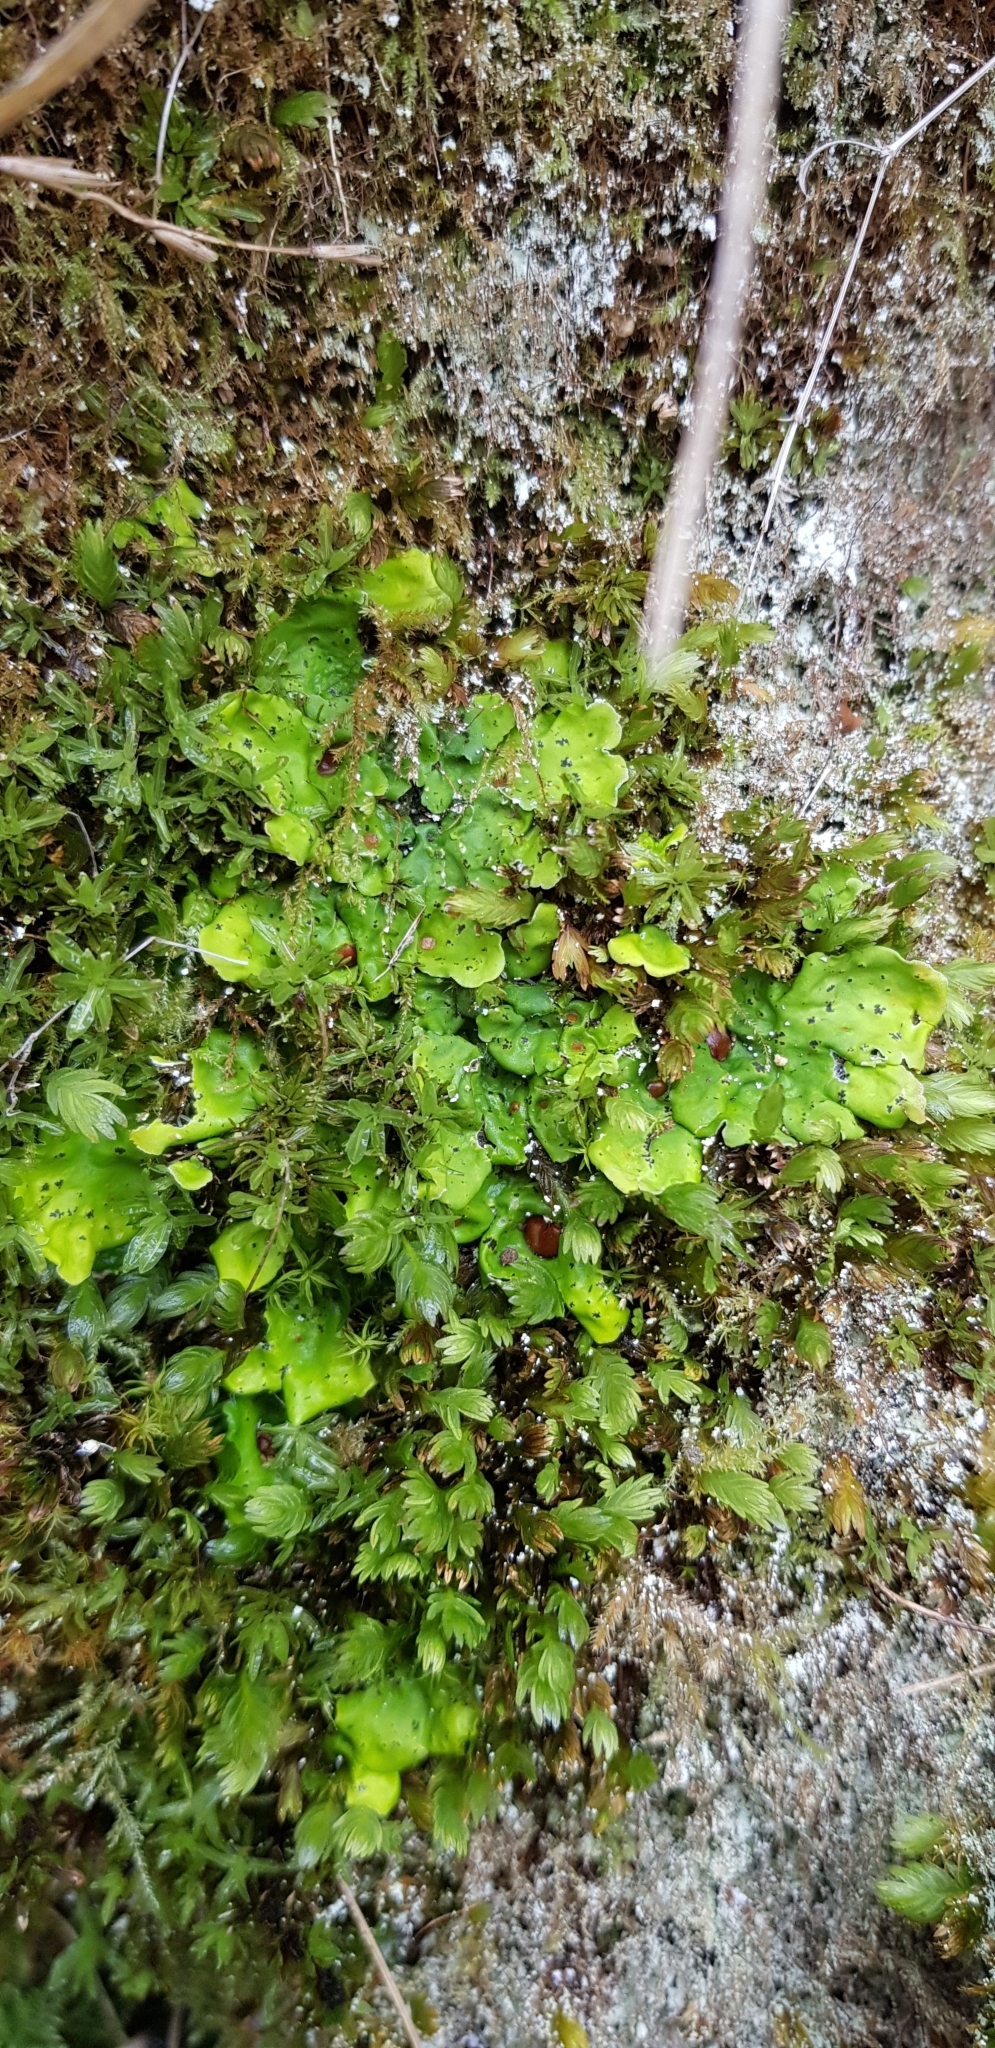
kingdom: Fungi
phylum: Ascomycota
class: Lecanoromycetes
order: Peltigerales
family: Peltigeraceae
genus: Solorina
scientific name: Solorina saccata
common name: Common chocolate chip lichen
